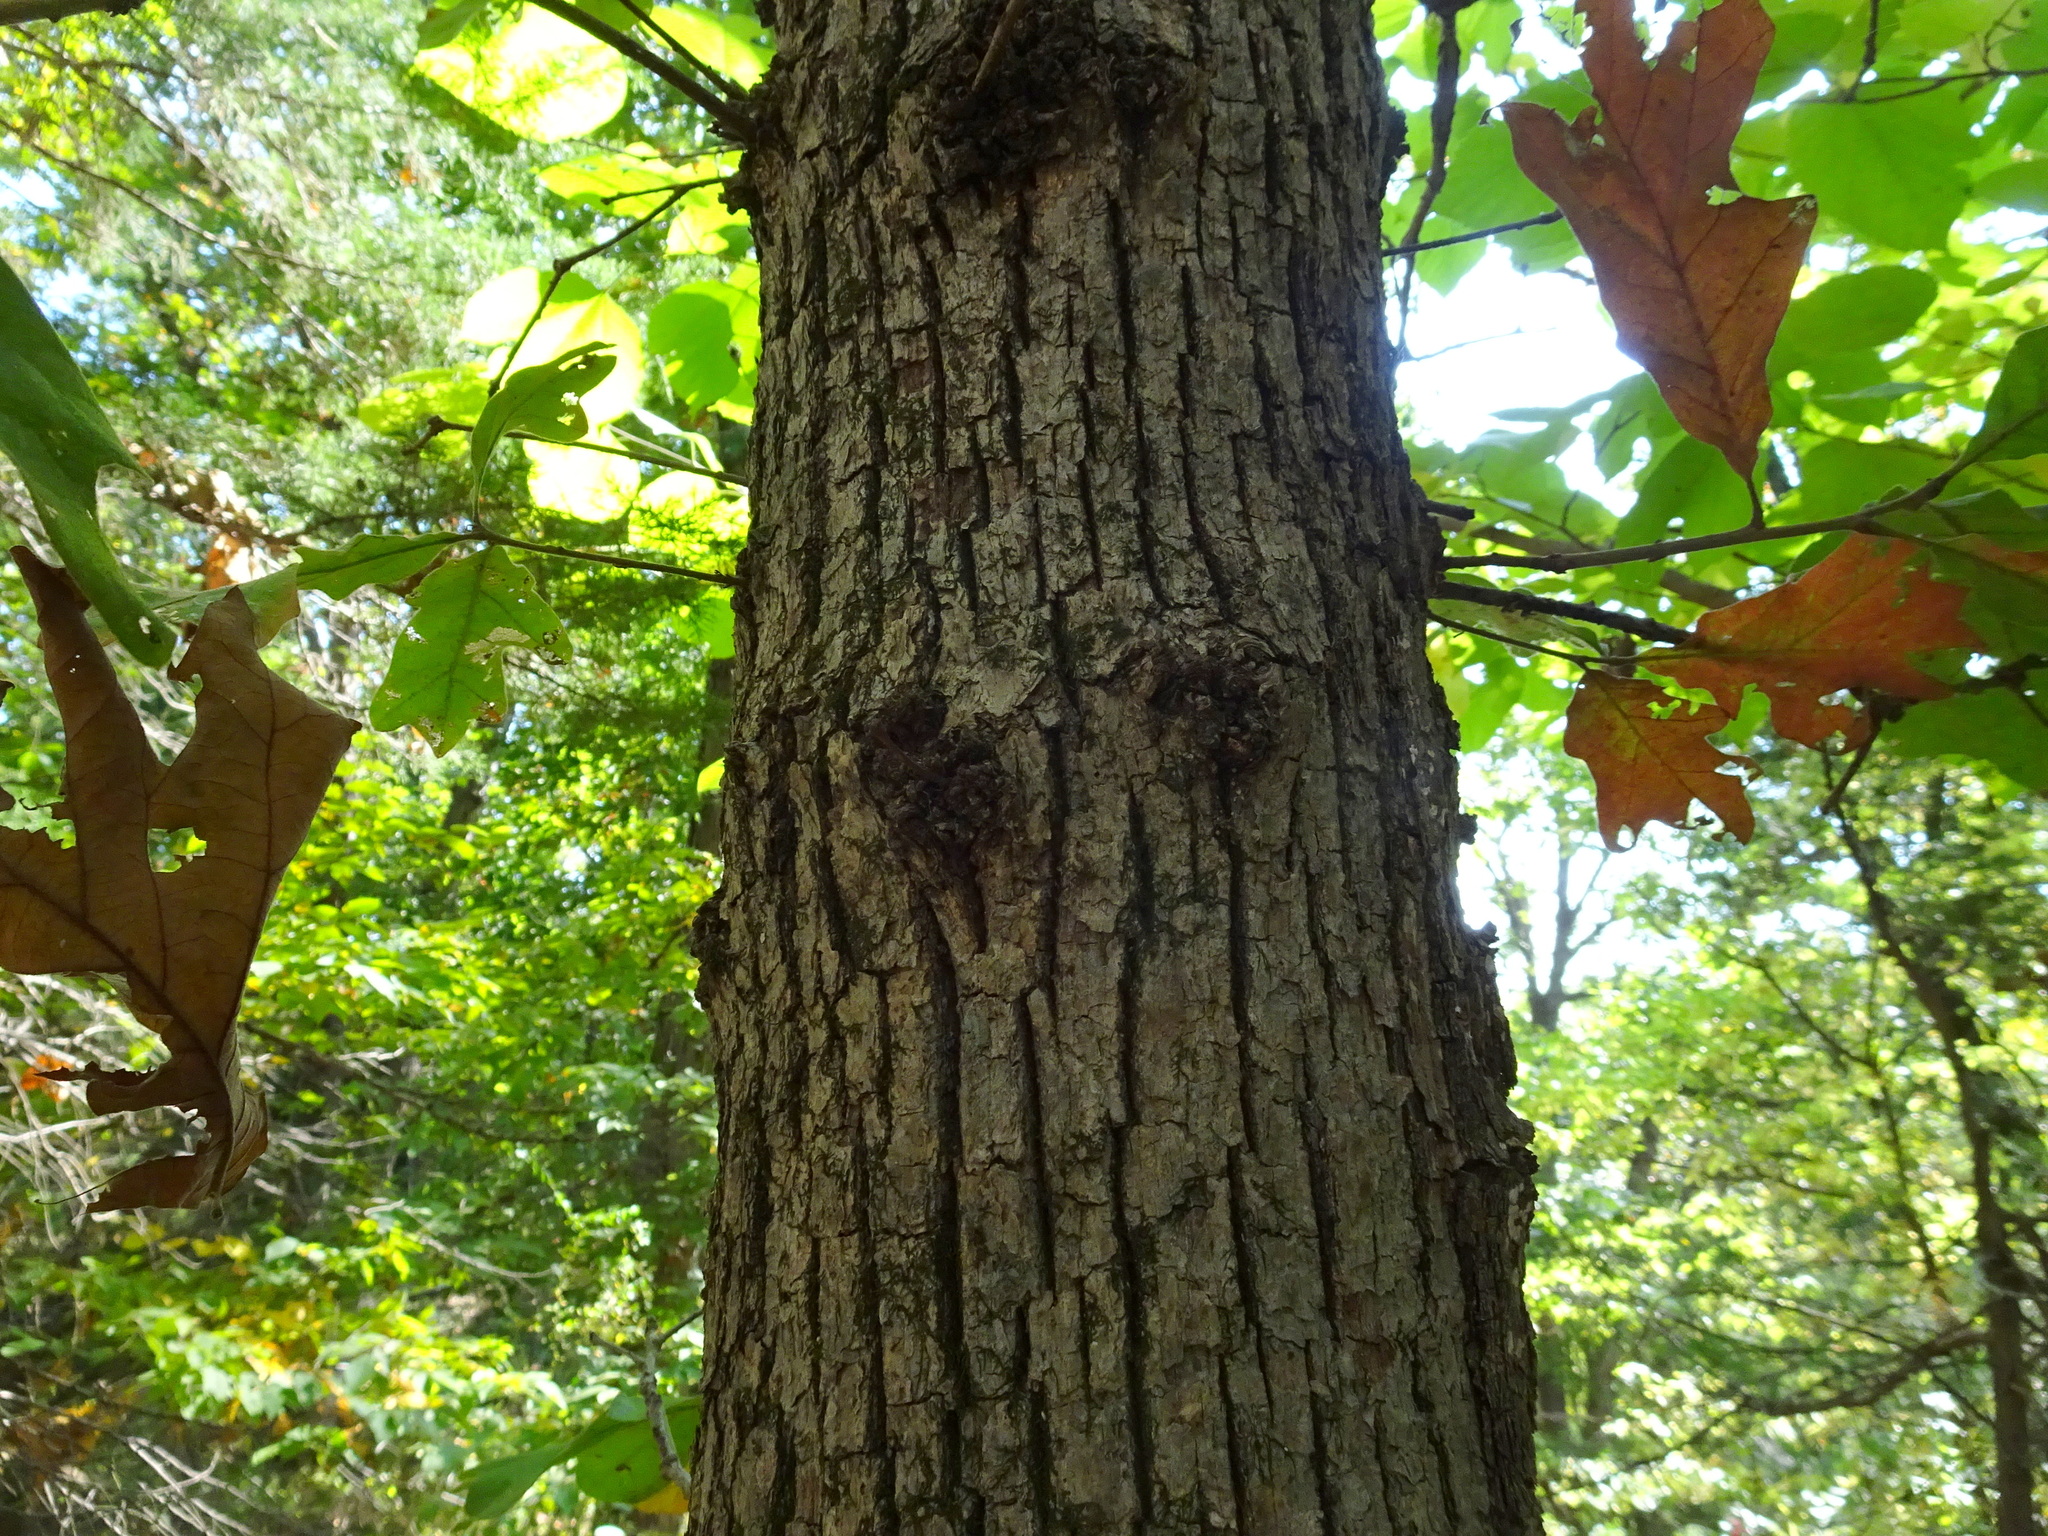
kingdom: Plantae
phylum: Tracheophyta
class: Magnoliopsida
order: Fagales
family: Fagaceae
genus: Quercus
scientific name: Quercus stellata
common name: Post oak
